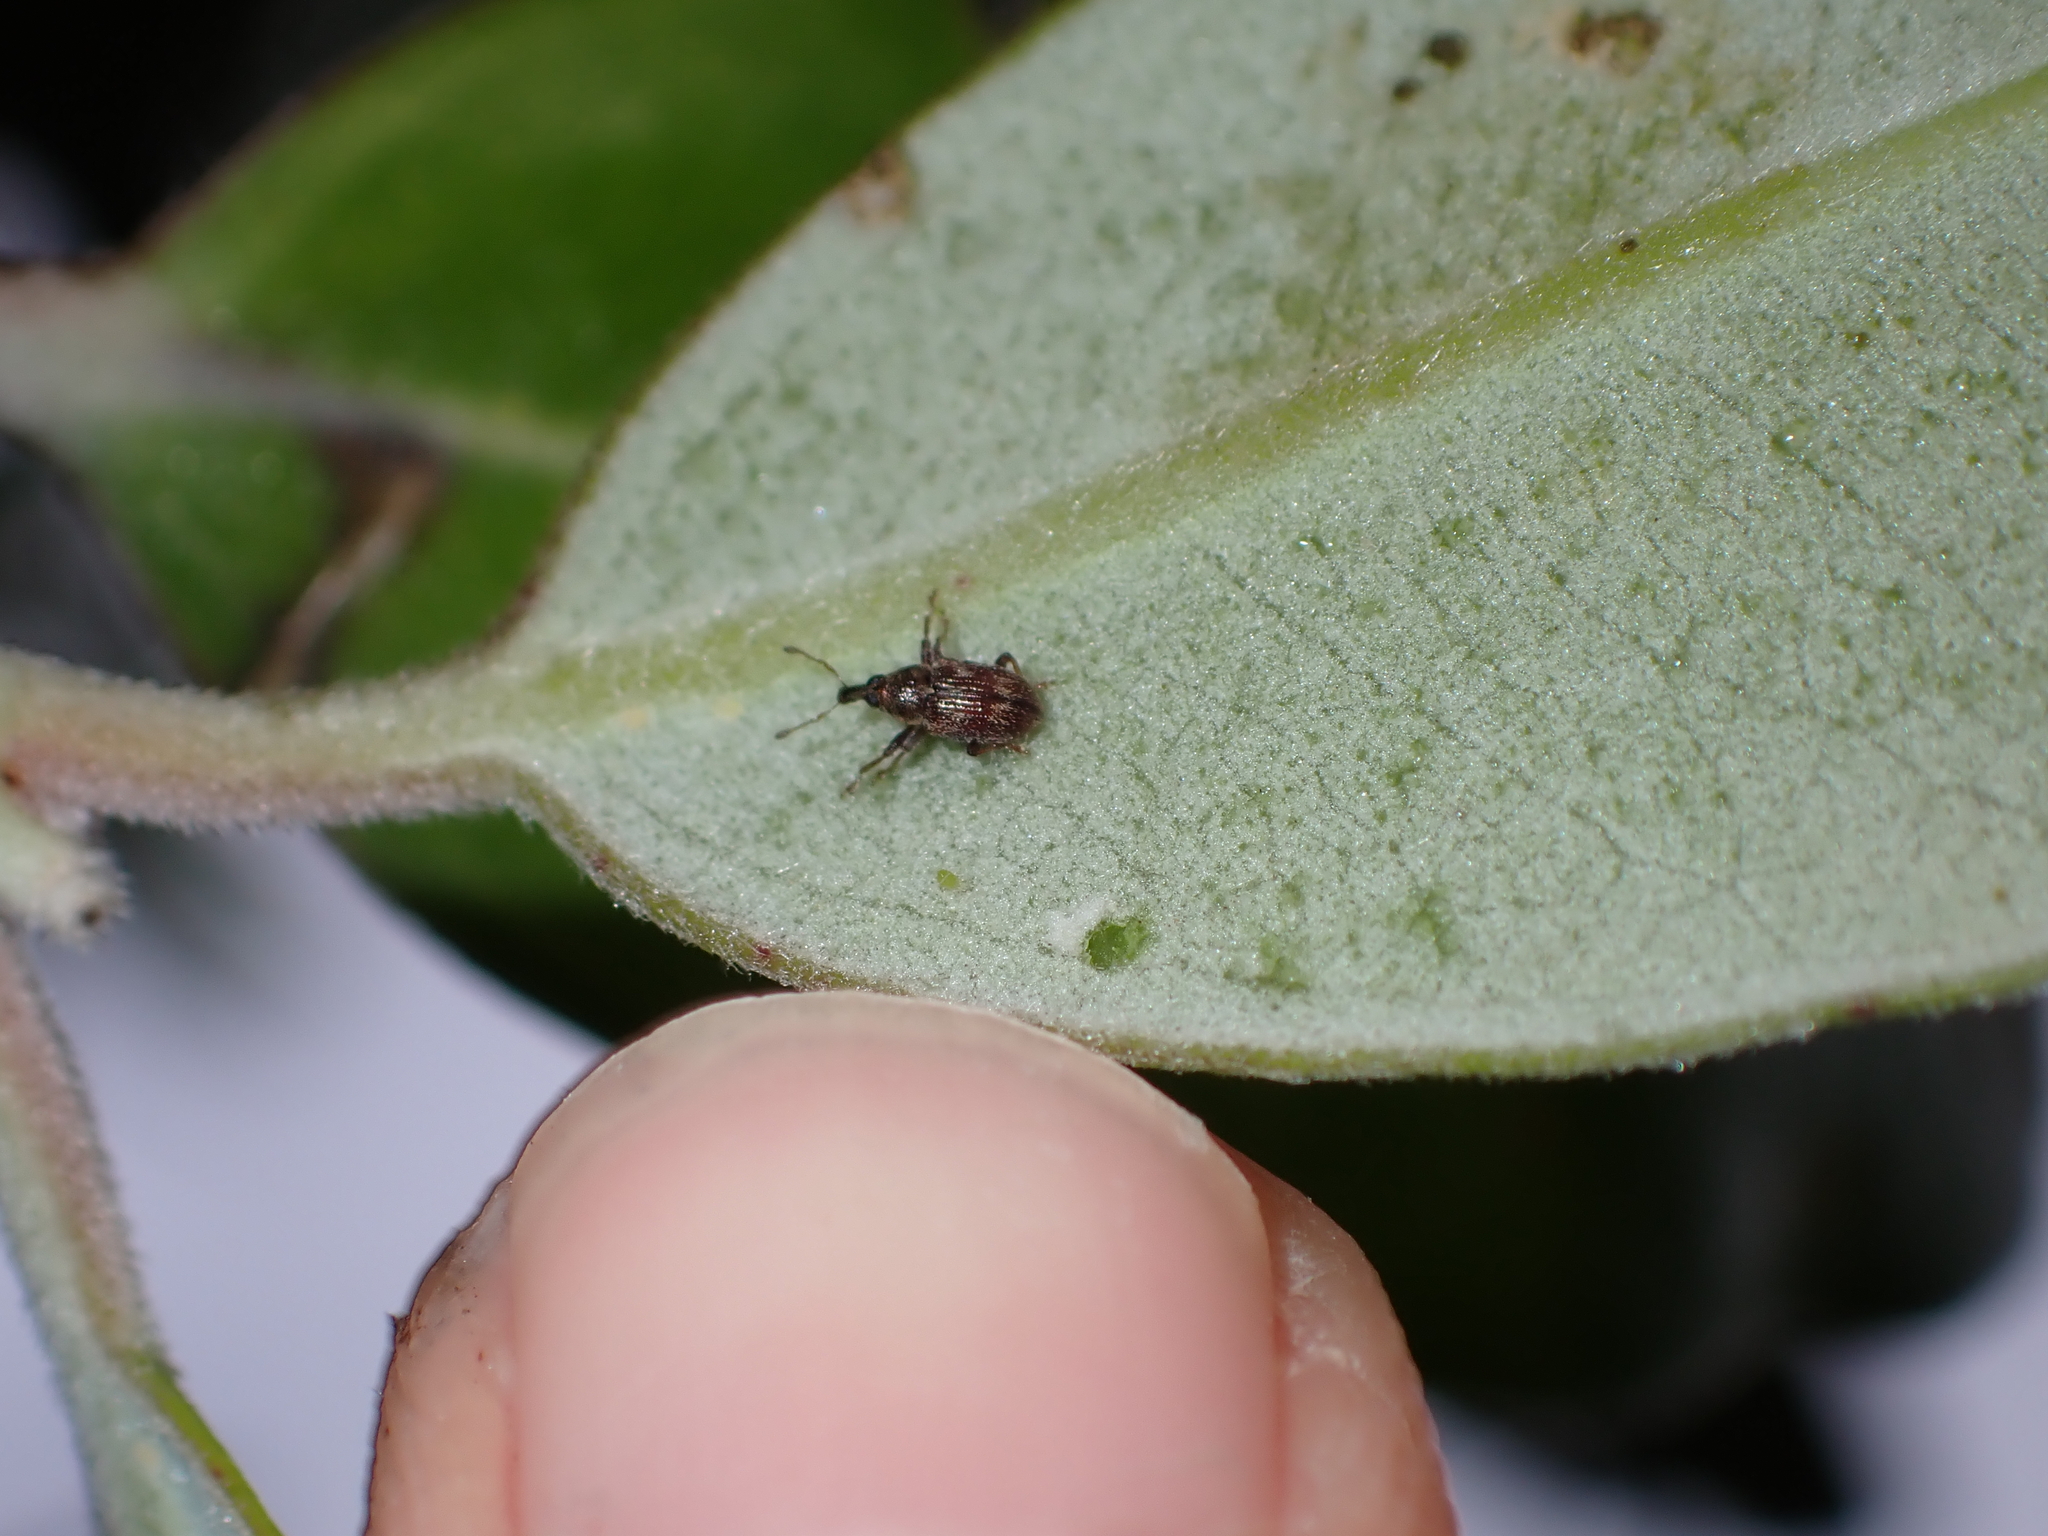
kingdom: Animalia
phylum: Arthropoda
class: Insecta
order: Coleoptera
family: Curculionidae
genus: Neomycta
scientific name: Neomycta rubida
